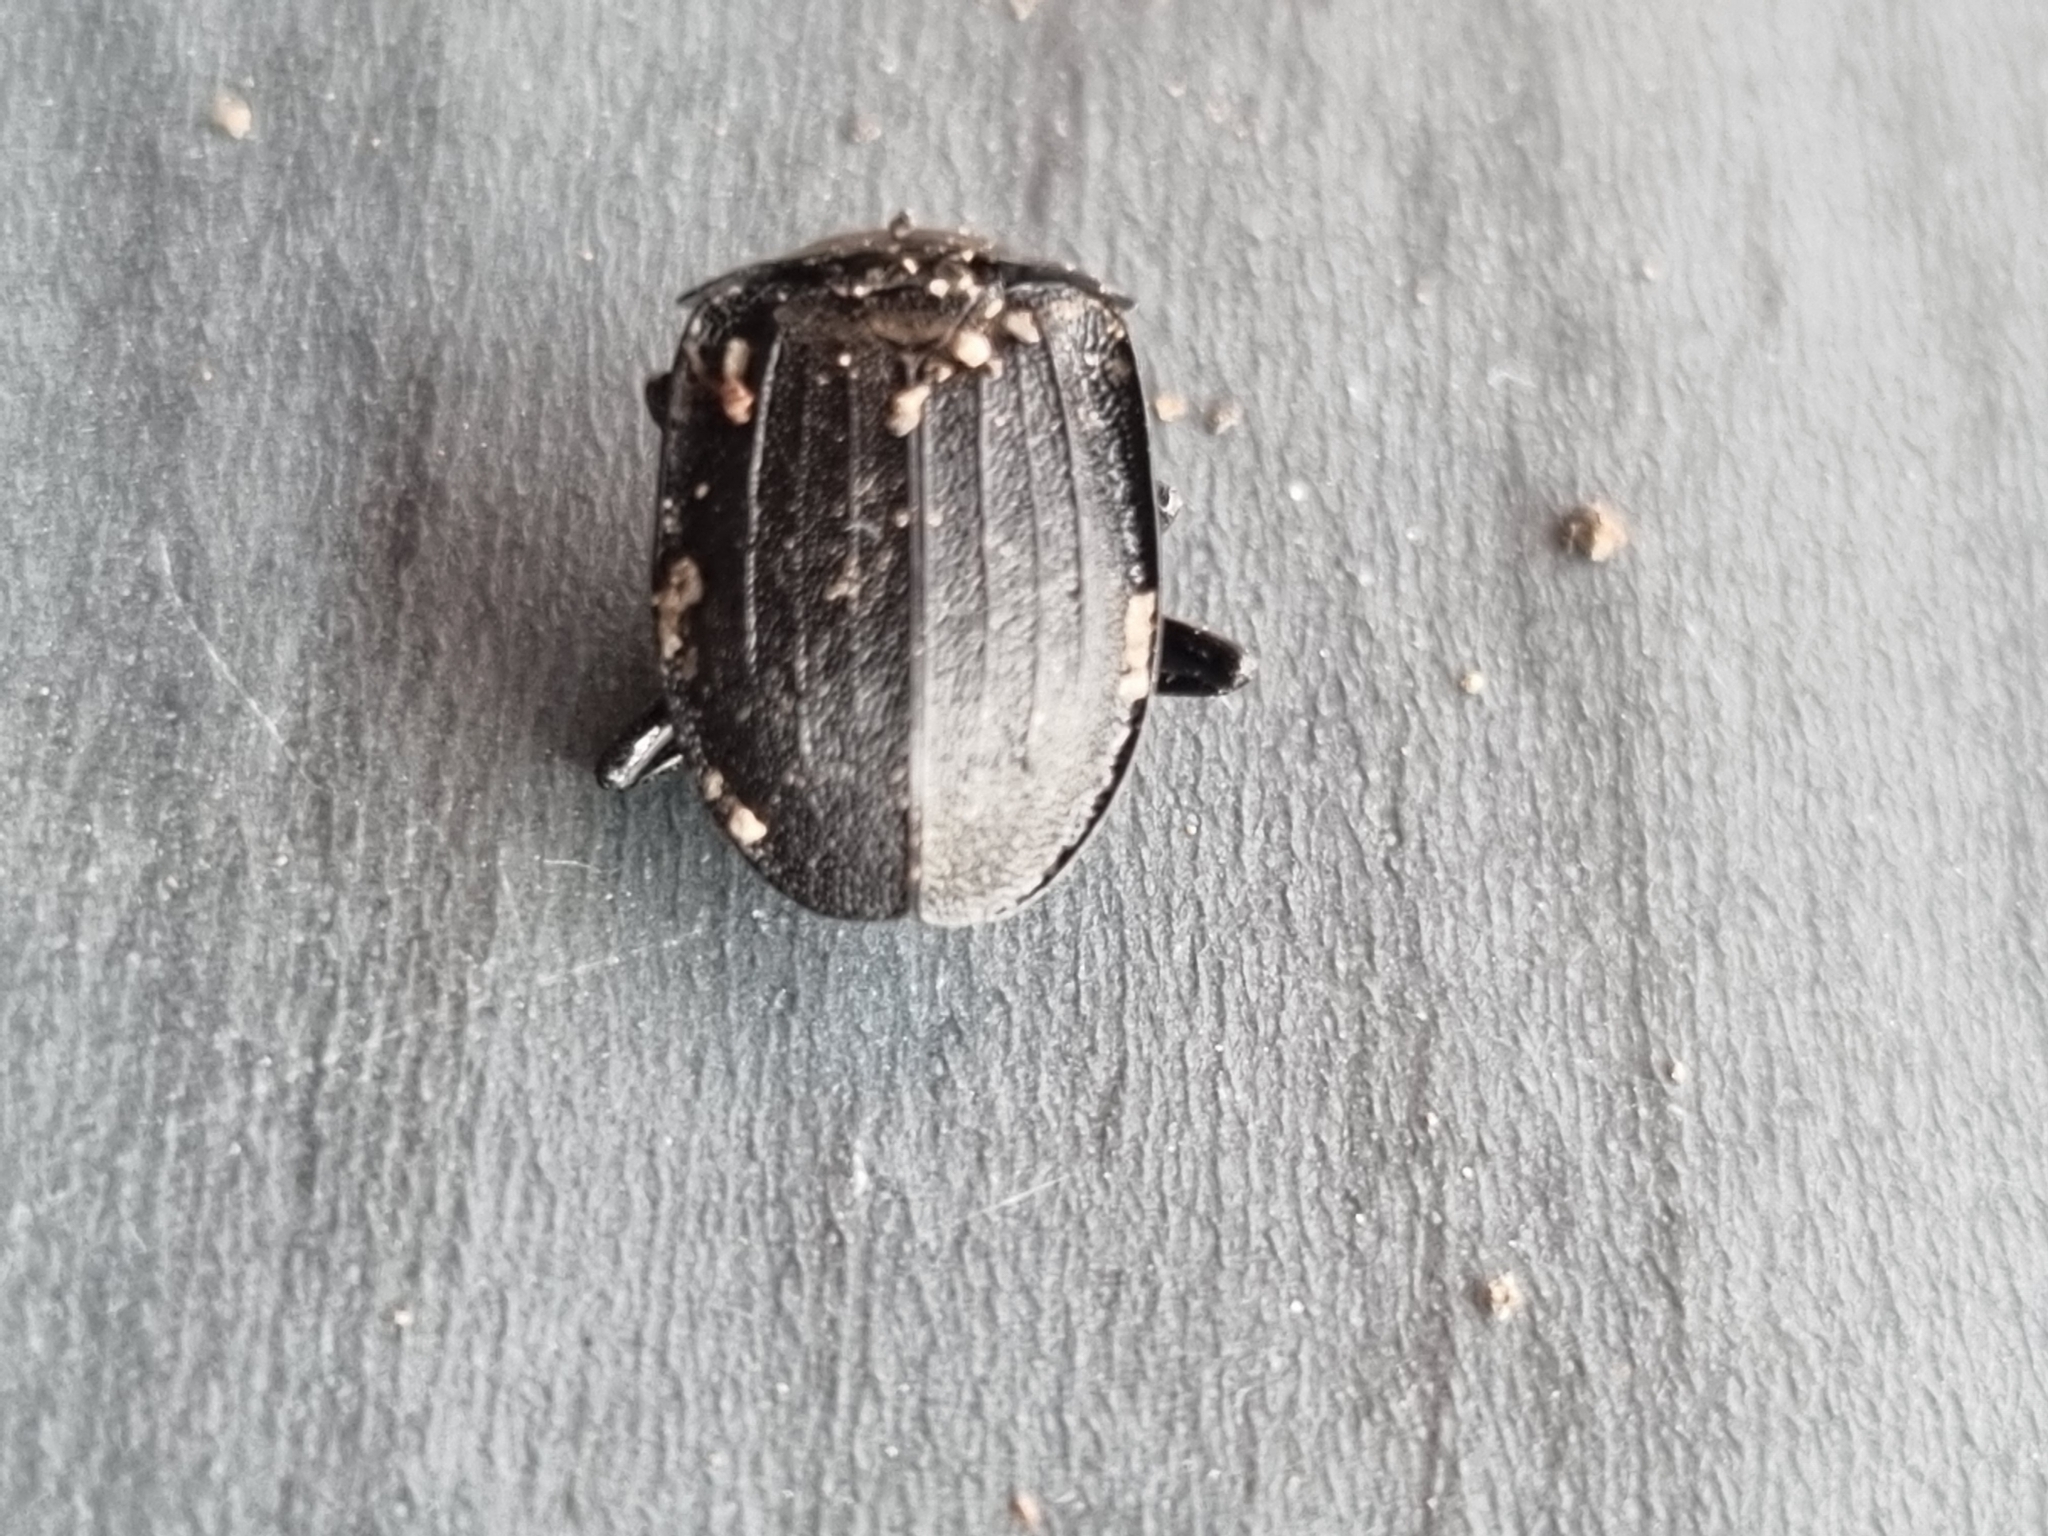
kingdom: Animalia
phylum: Arthropoda
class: Insecta
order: Coleoptera
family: Staphylinidae
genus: Silpha
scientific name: Silpha atrata
